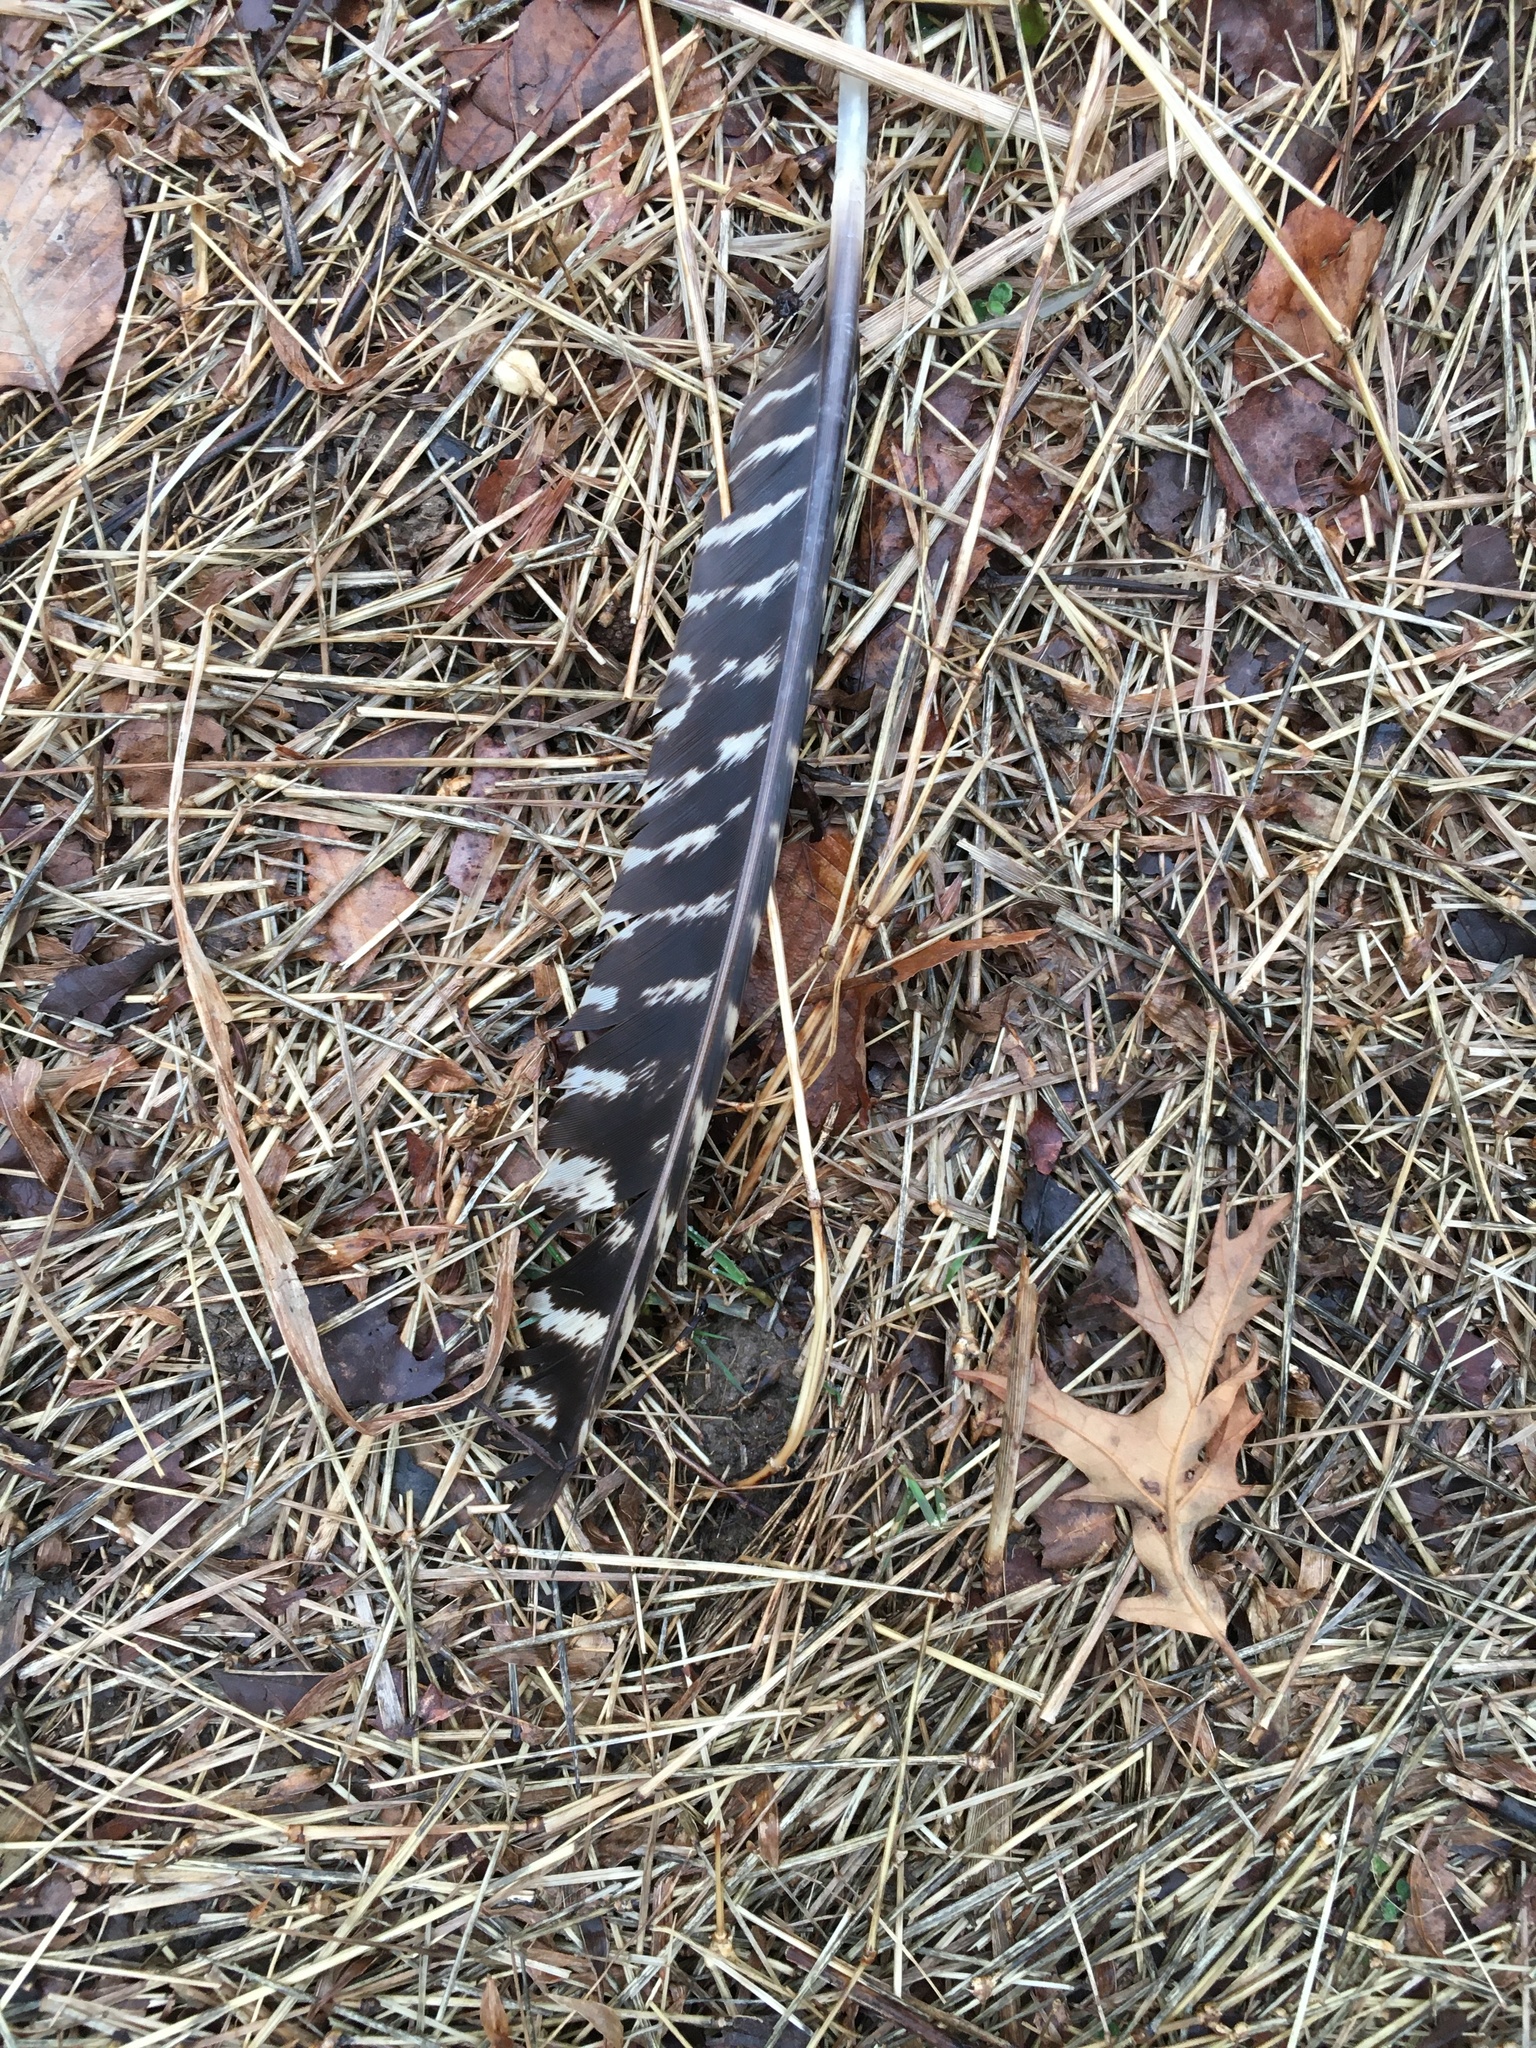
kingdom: Animalia
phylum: Chordata
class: Aves
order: Galliformes
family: Phasianidae
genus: Meleagris
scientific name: Meleagris gallopavo
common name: Wild turkey
